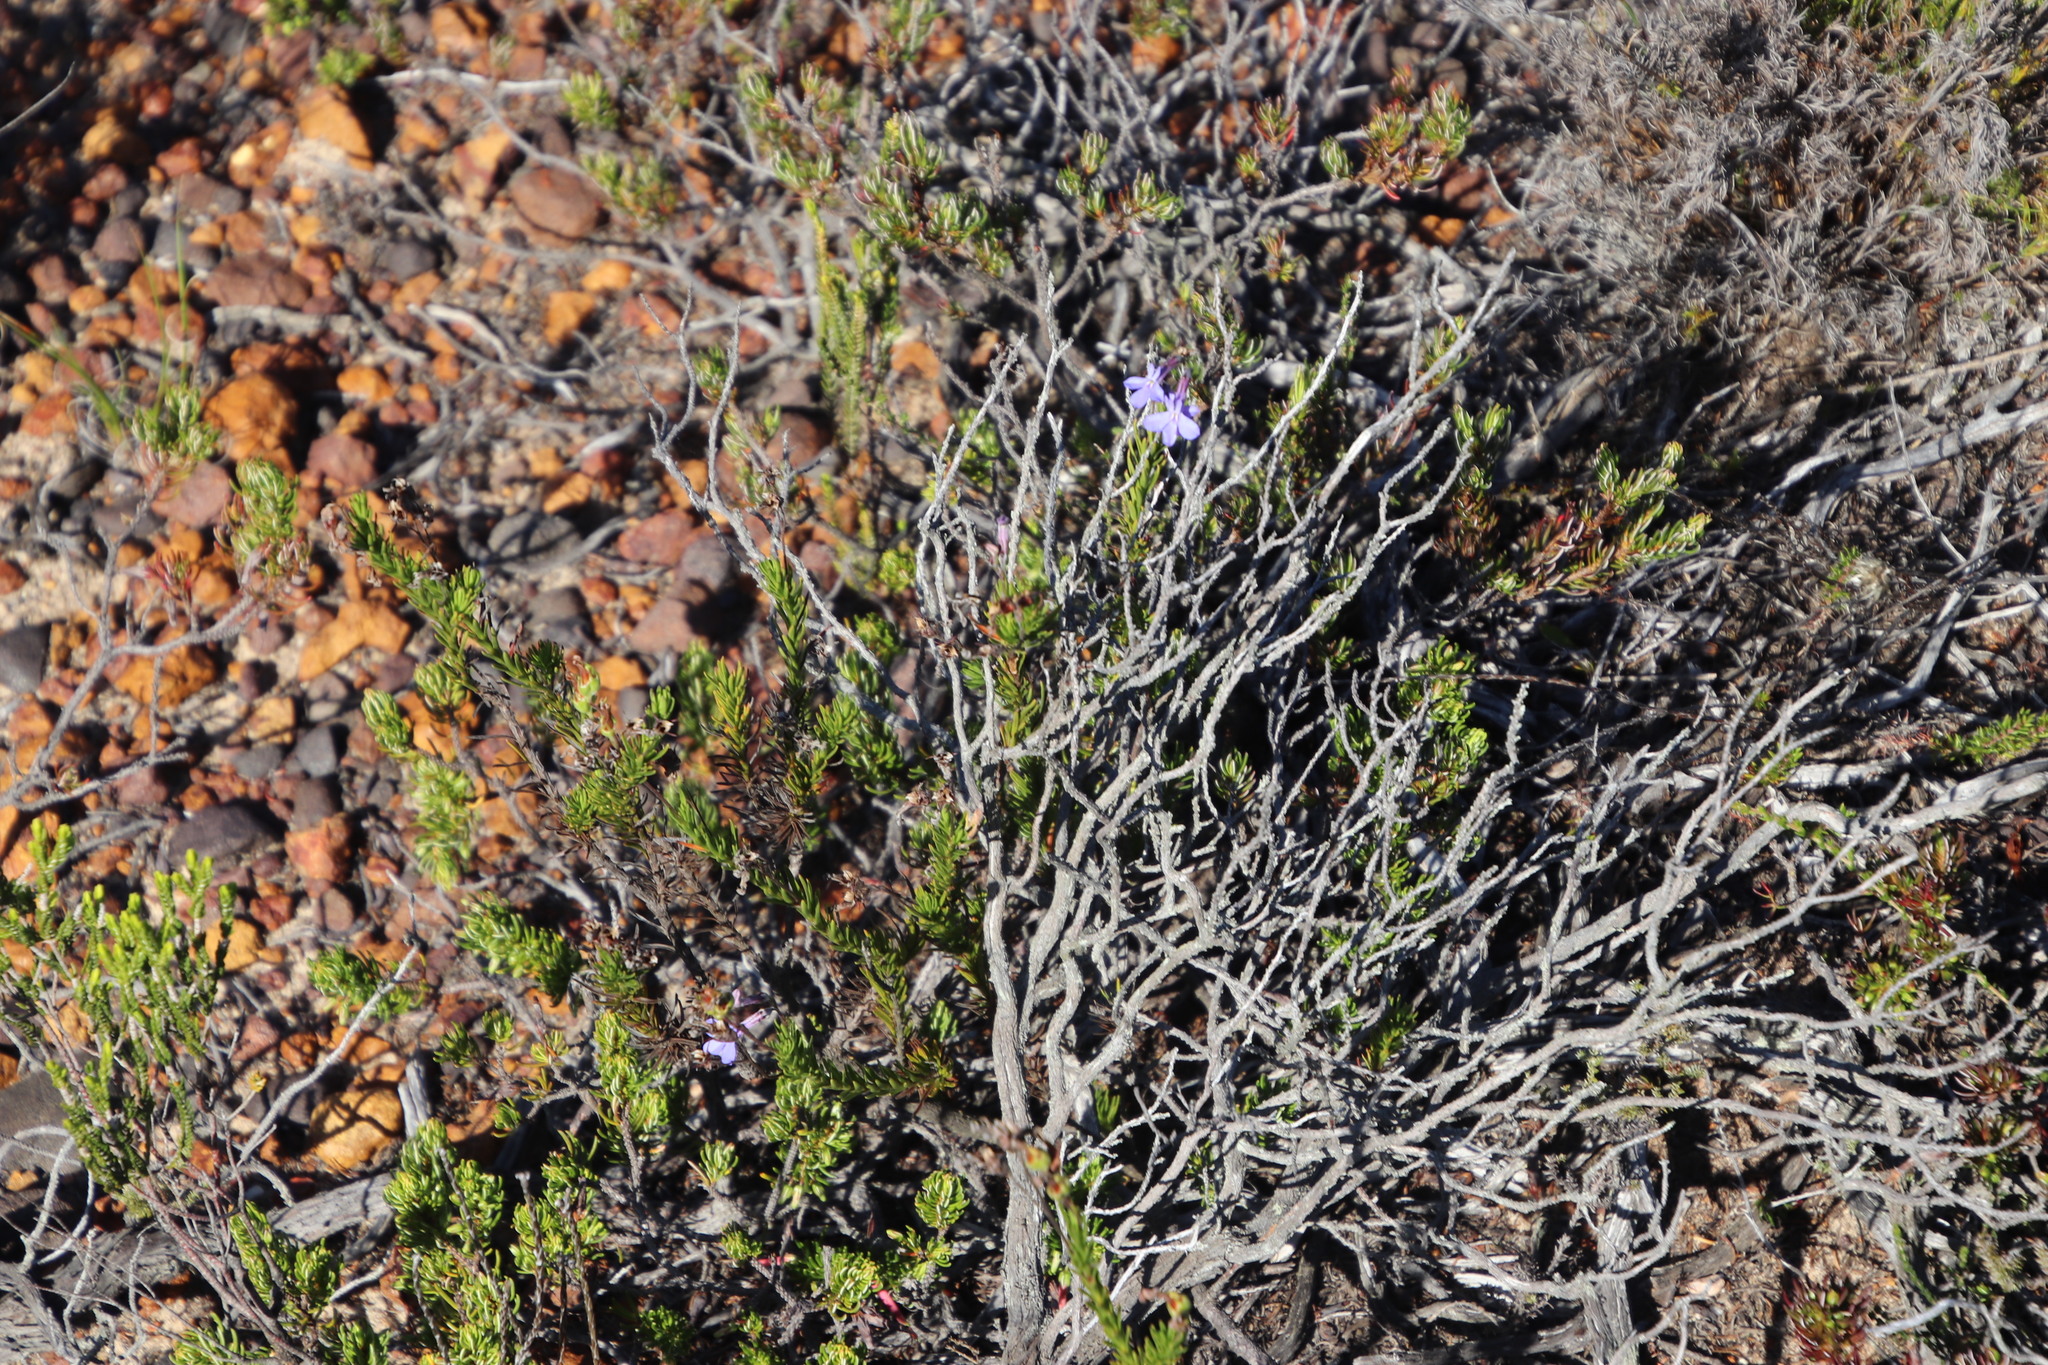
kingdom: Plantae
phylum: Tracheophyta
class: Magnoliopsida
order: Asterales
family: Campanulaceae
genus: Lobelia
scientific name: Lobelia pinifolia
